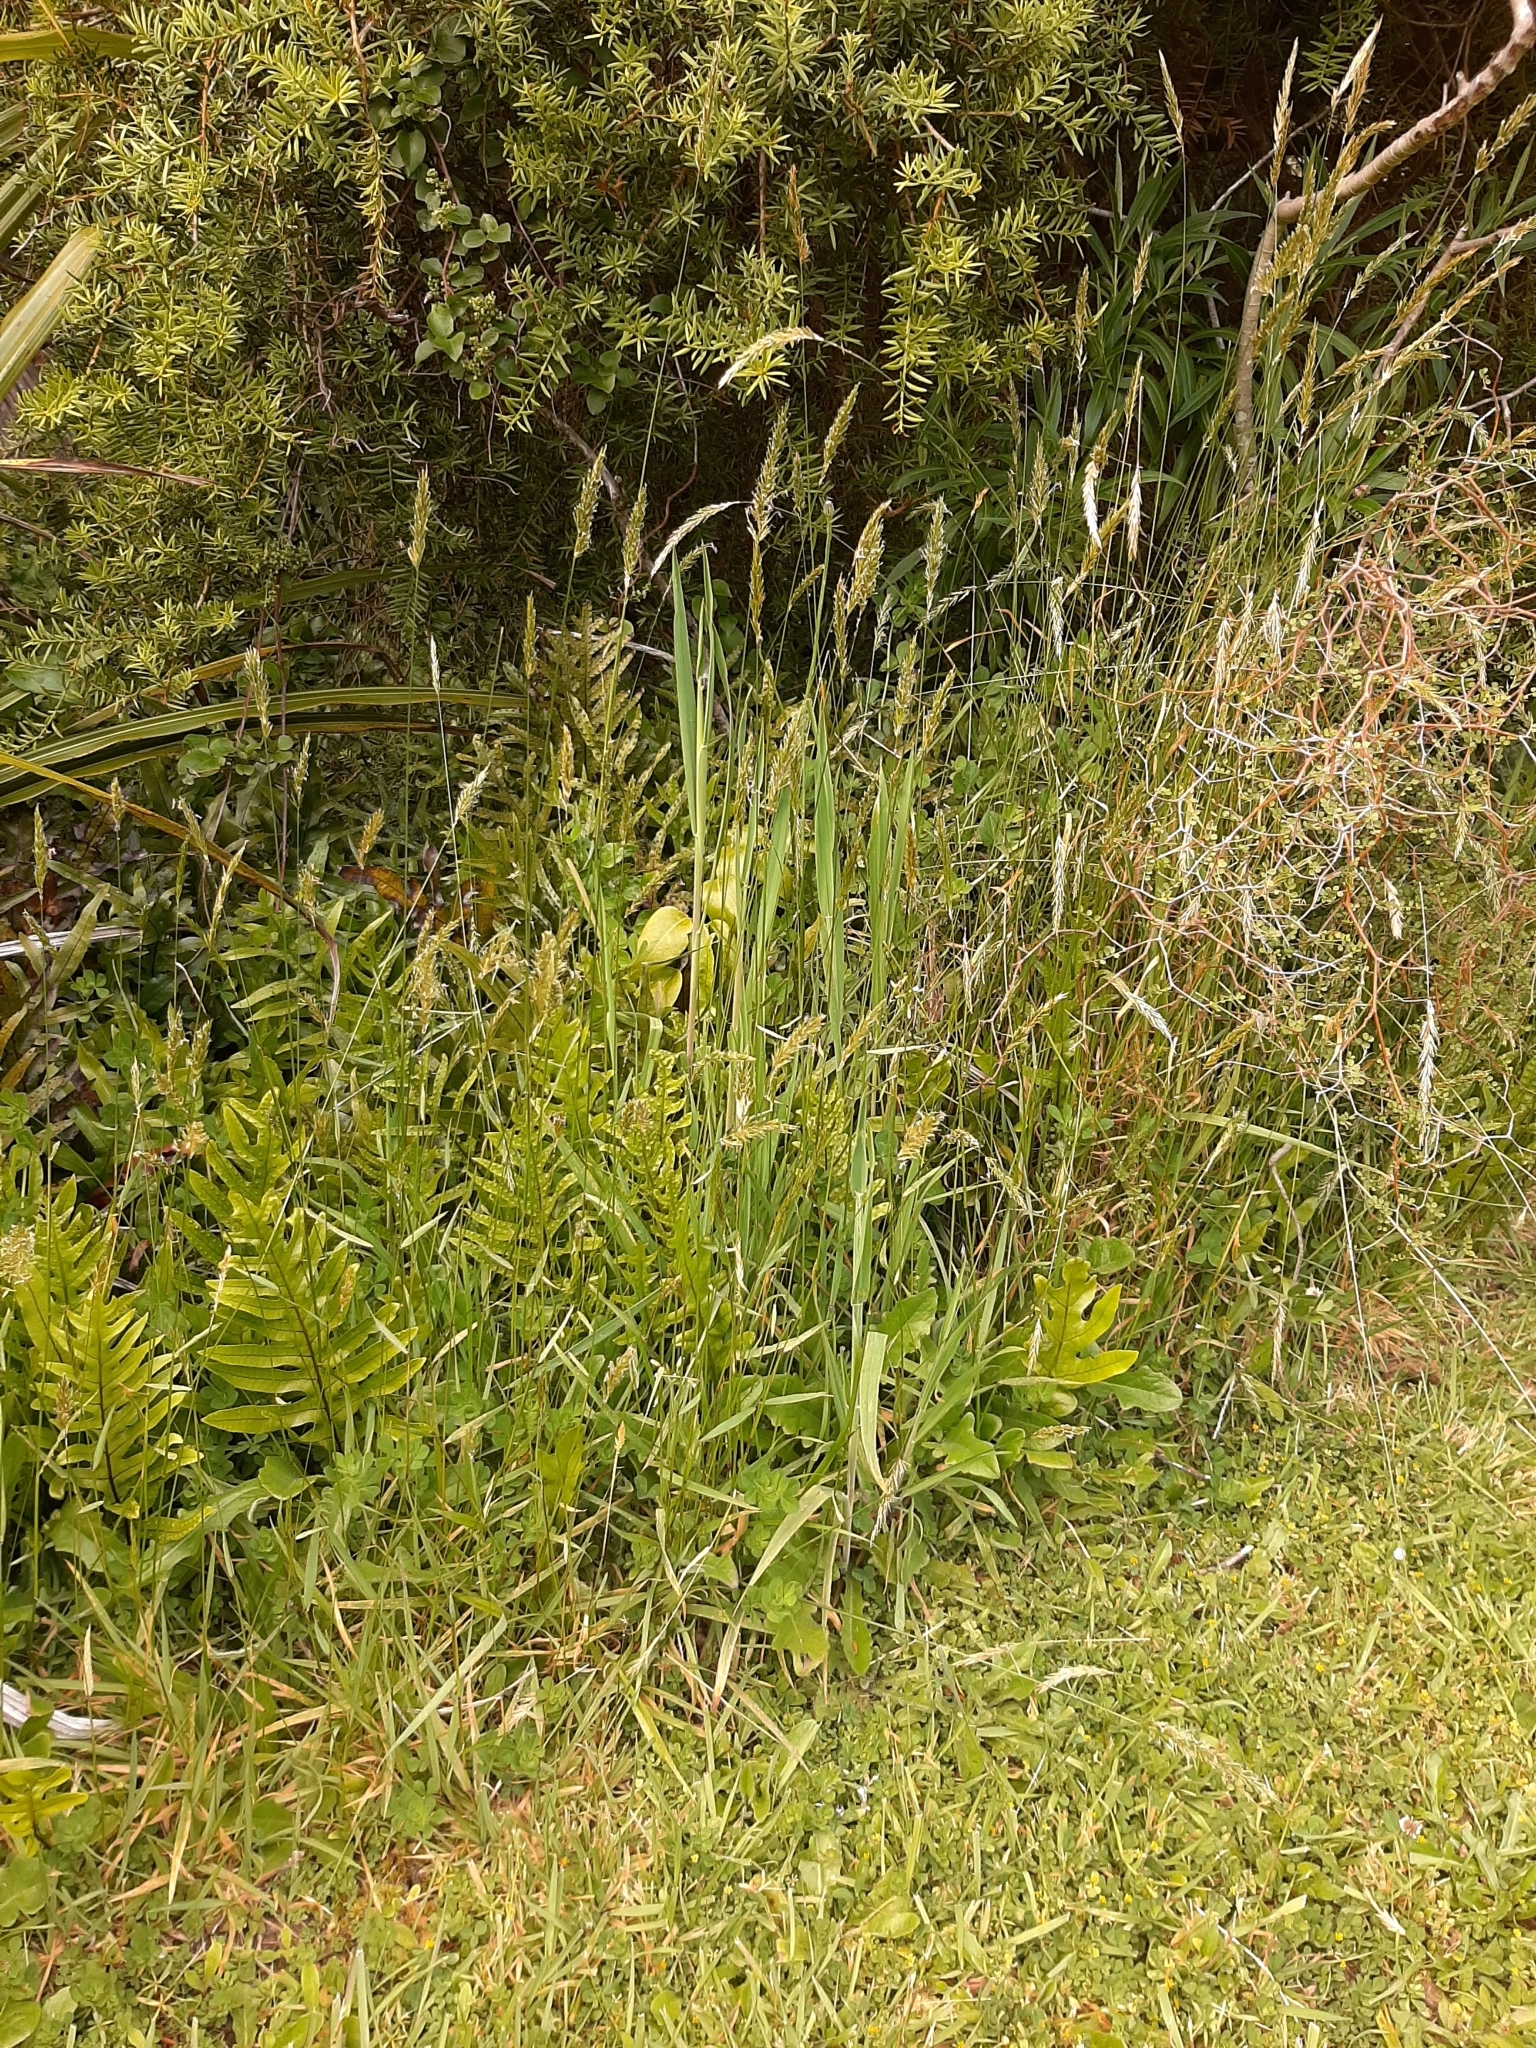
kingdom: Plantae
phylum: Tracheophyta
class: Liliopsida
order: Poales
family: Poaceae
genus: Anthoxanthum
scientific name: Anthoxanthum odoratum
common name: Sweet vernalgrass
